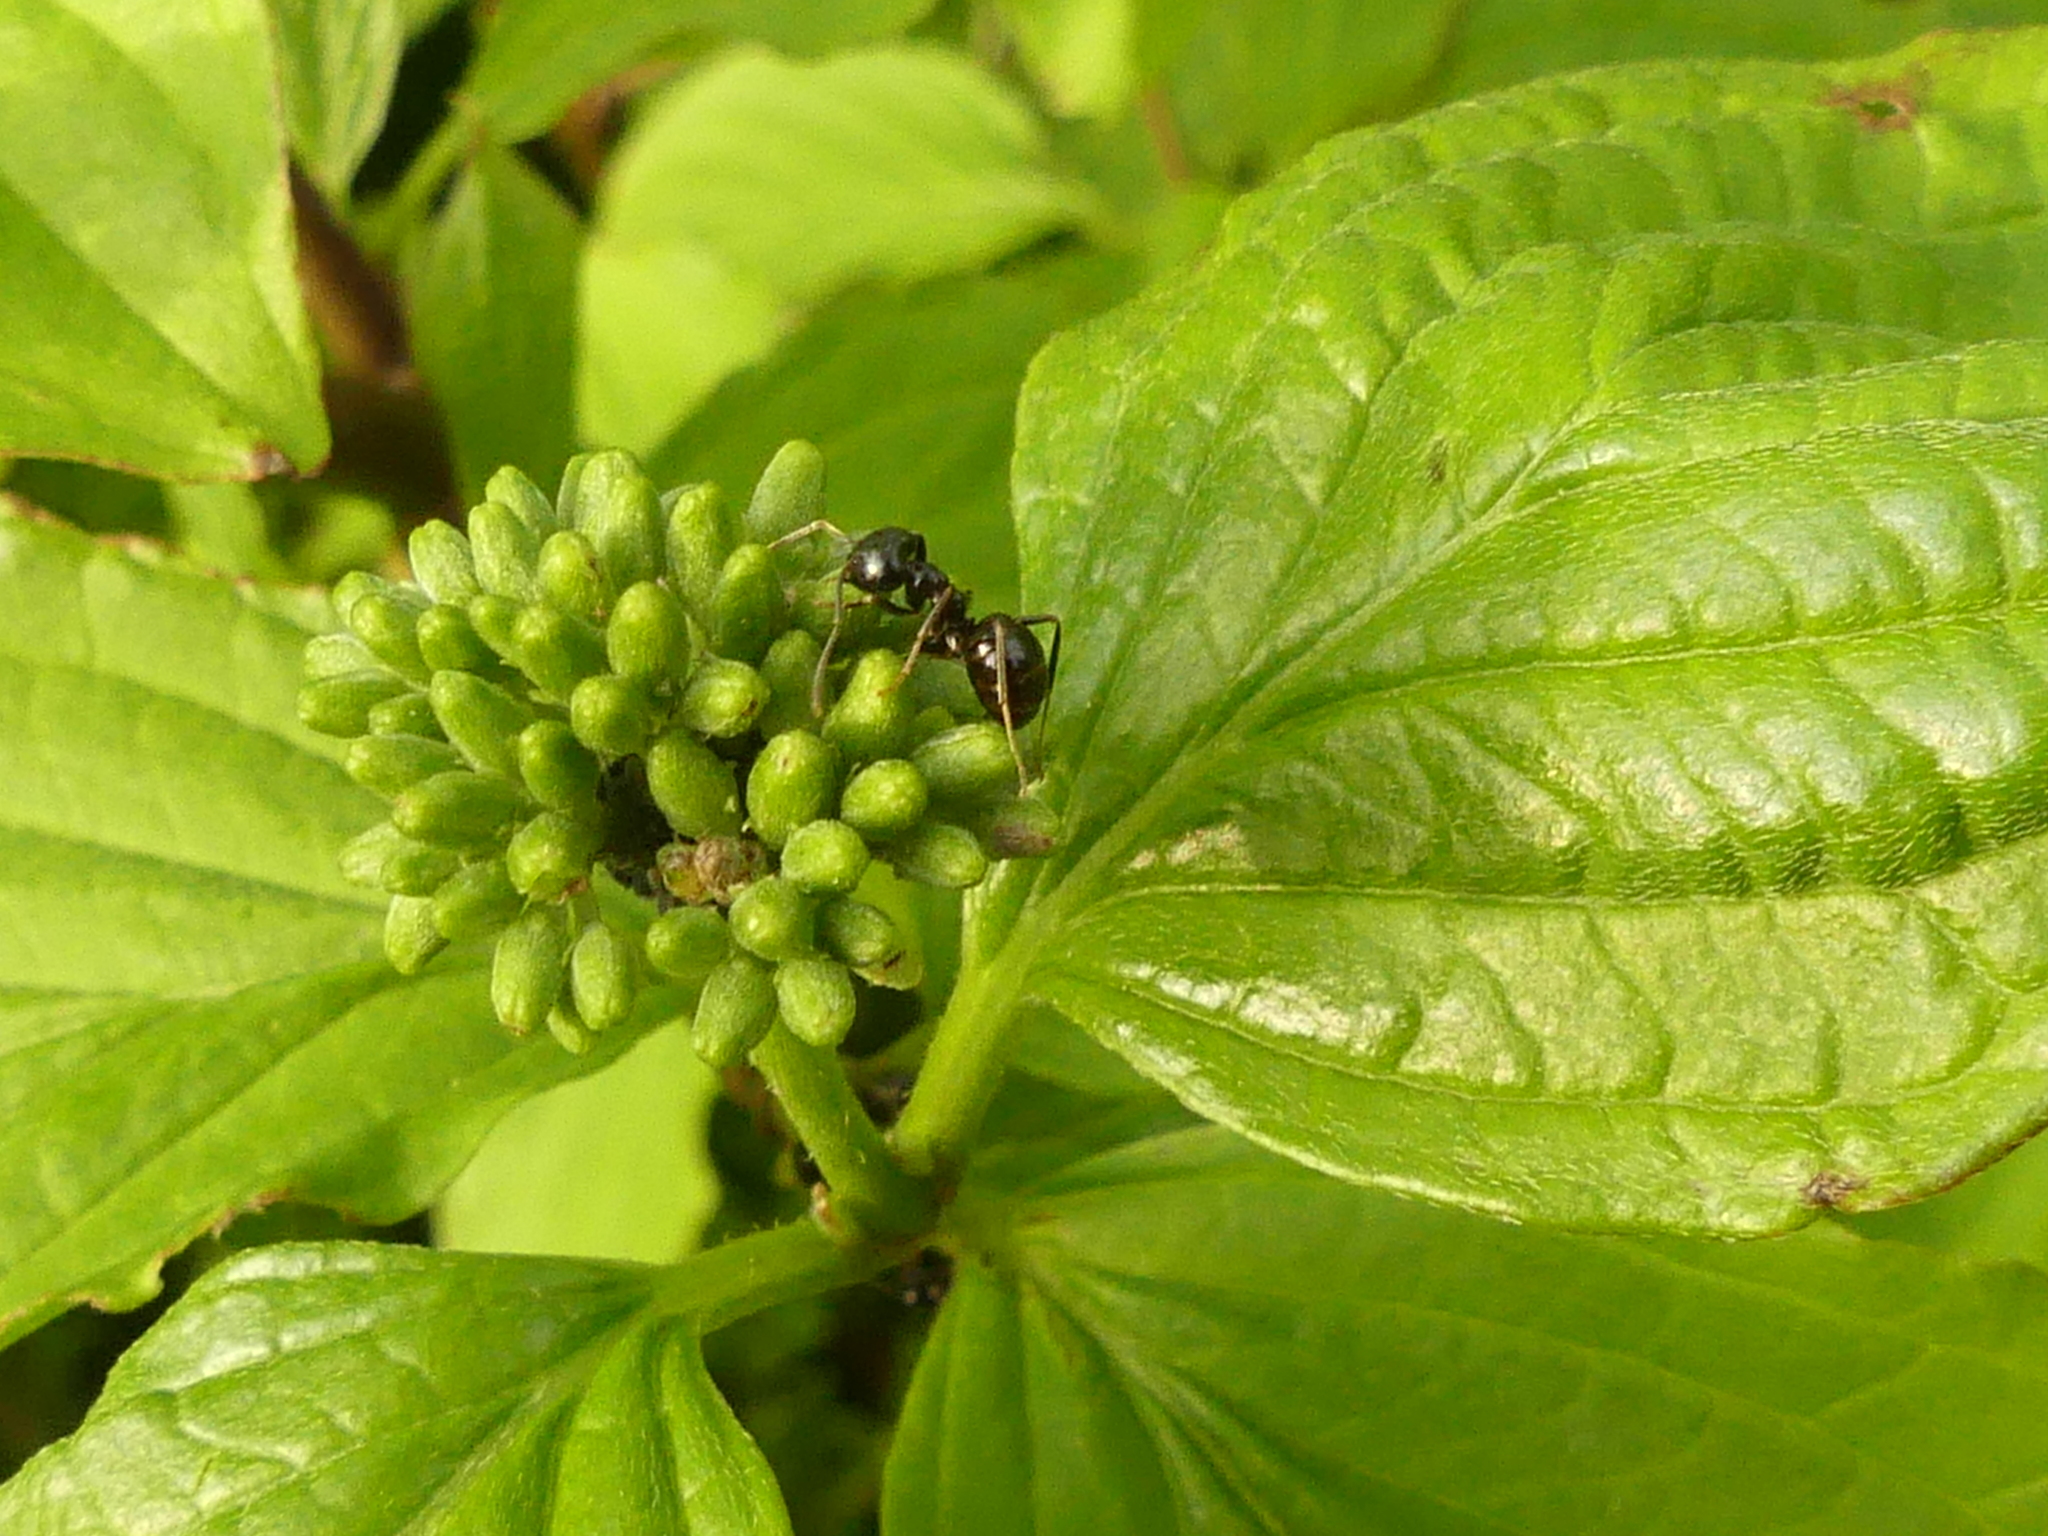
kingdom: Animalia
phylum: Arthropoda
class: Insecta
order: Hymenoptera
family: Formicidae
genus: Lasius
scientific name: Lasius fuliginosus
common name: Jet ant
